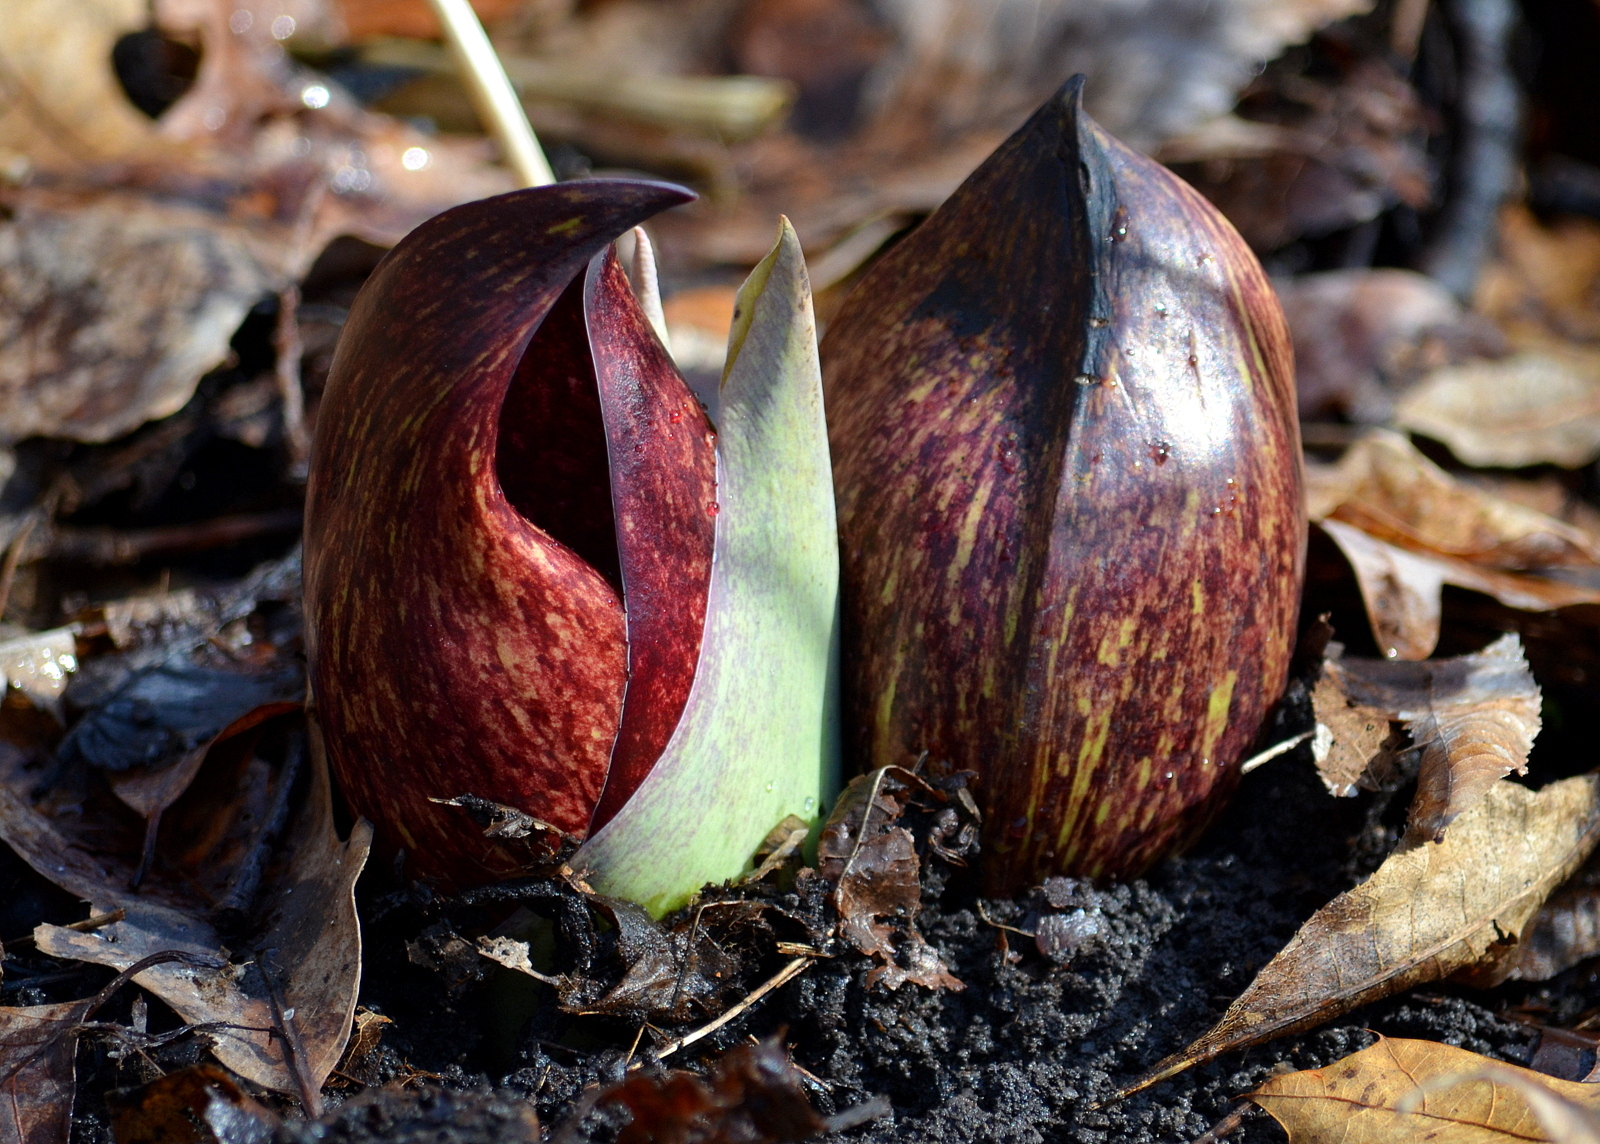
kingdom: Plantae
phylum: Tracheophyta
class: Liliopsida
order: Alismatales
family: Araceae
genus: Symplocarpus
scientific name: Symplocarpus foetidus
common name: Eastern skunk cabbage
